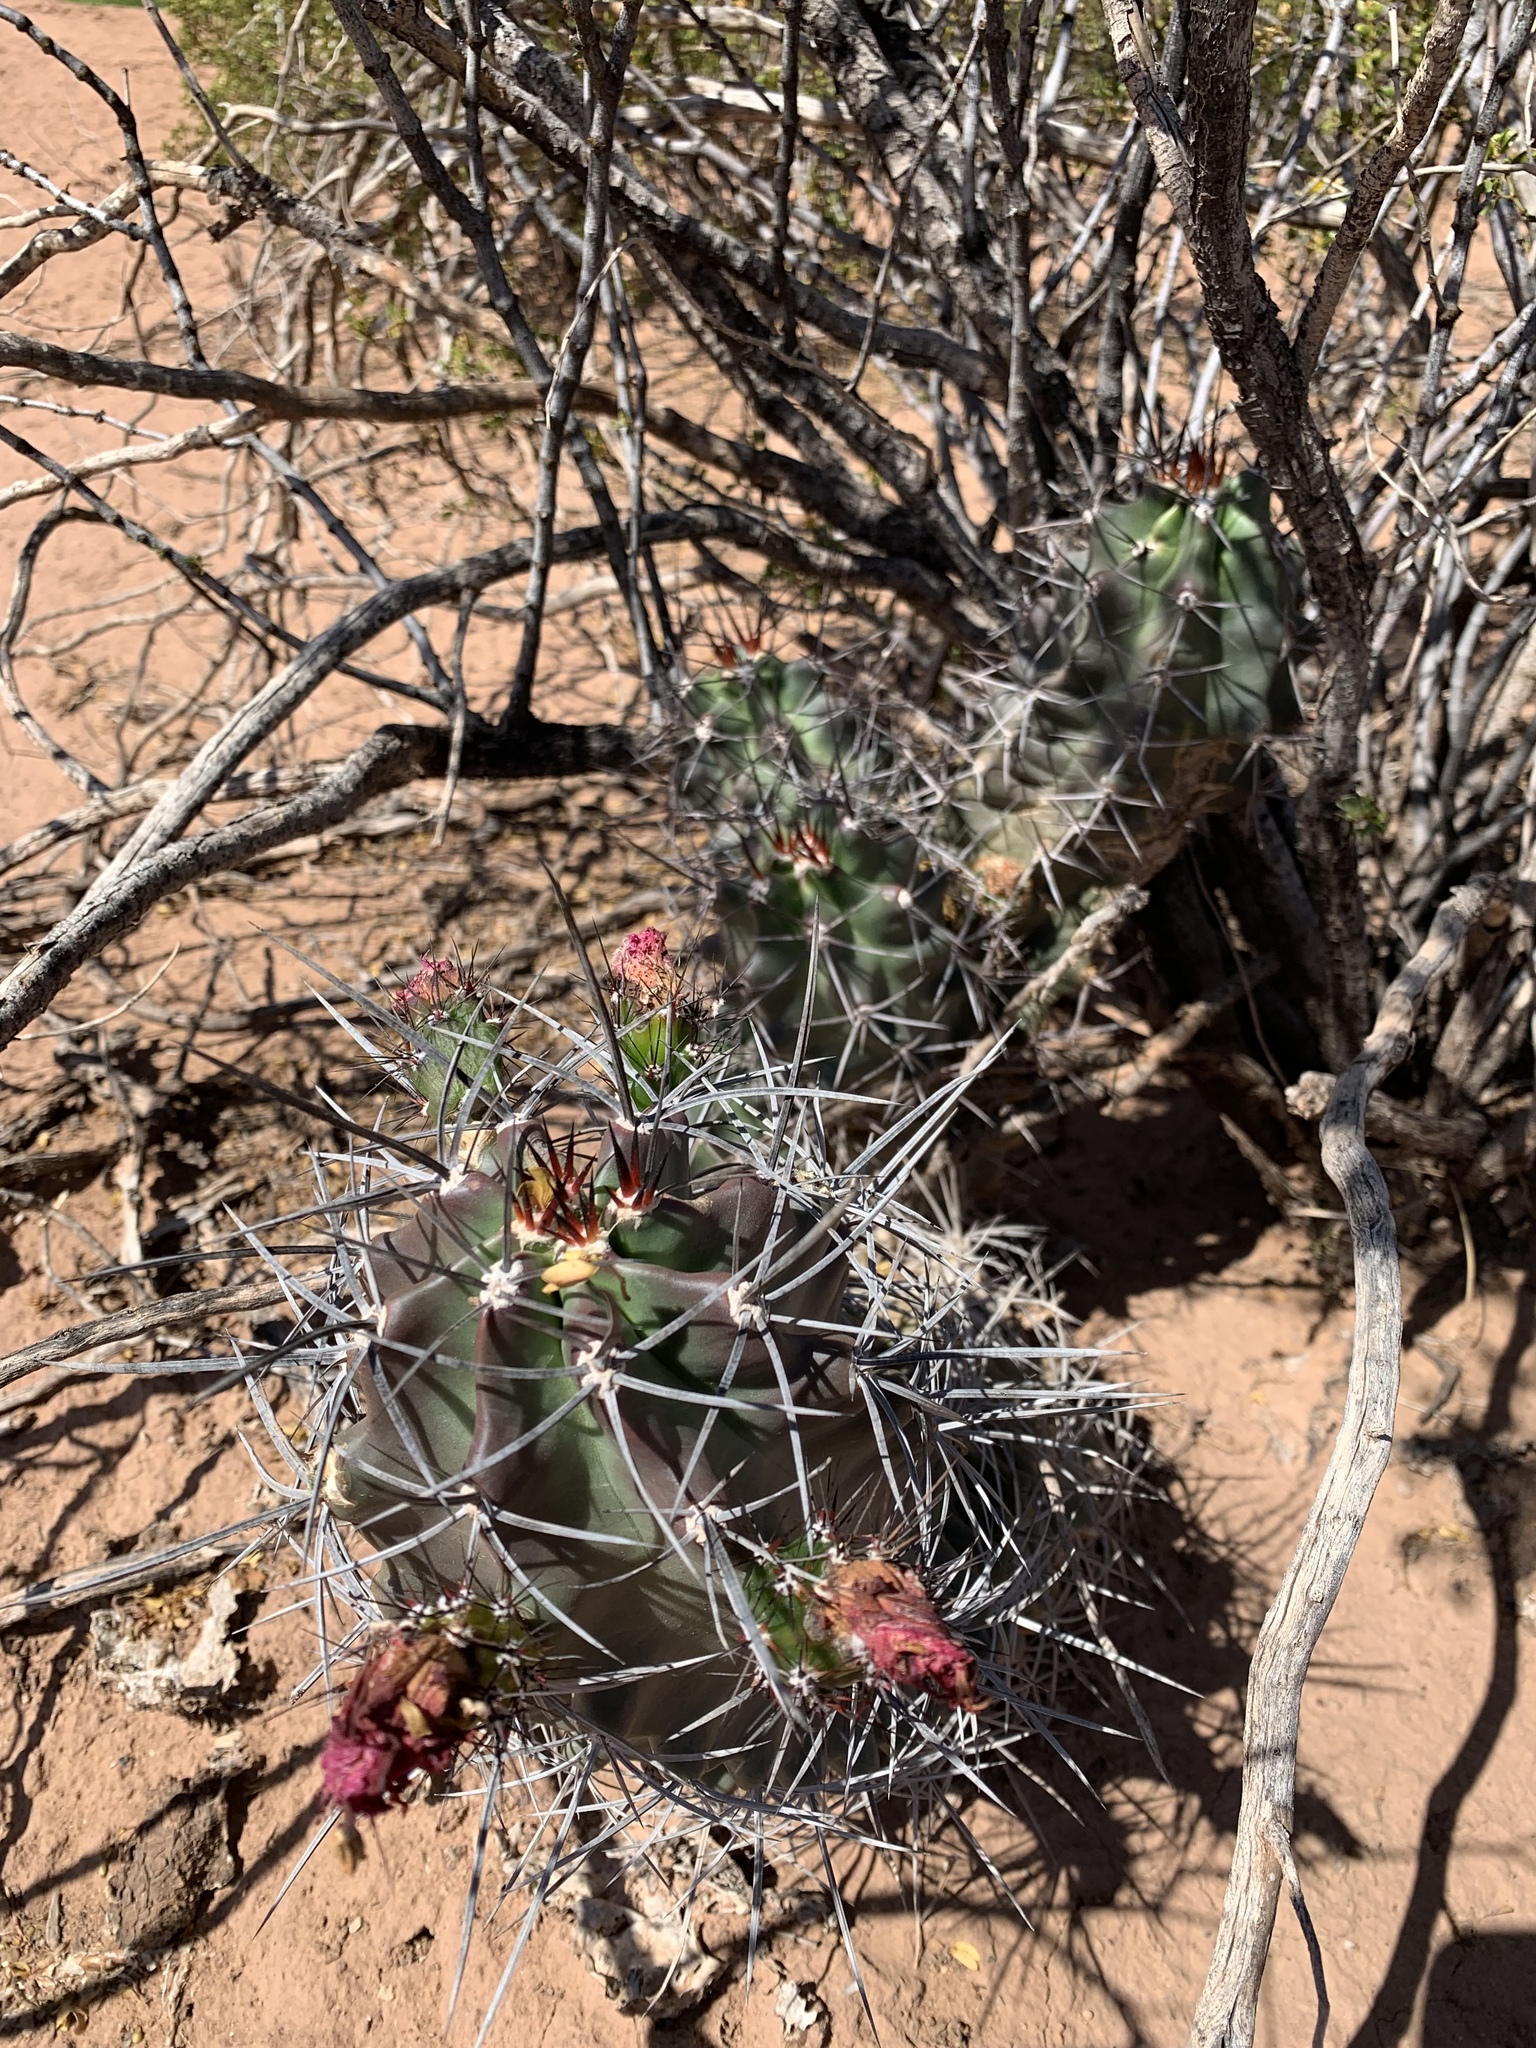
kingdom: Plantae
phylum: Tracheophyta
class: Magnoliopsida
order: Caryophyllales
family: Cactaceae
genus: Echinocereus
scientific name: Echinocereus triglochidiatus
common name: Claretcup hedgehog
